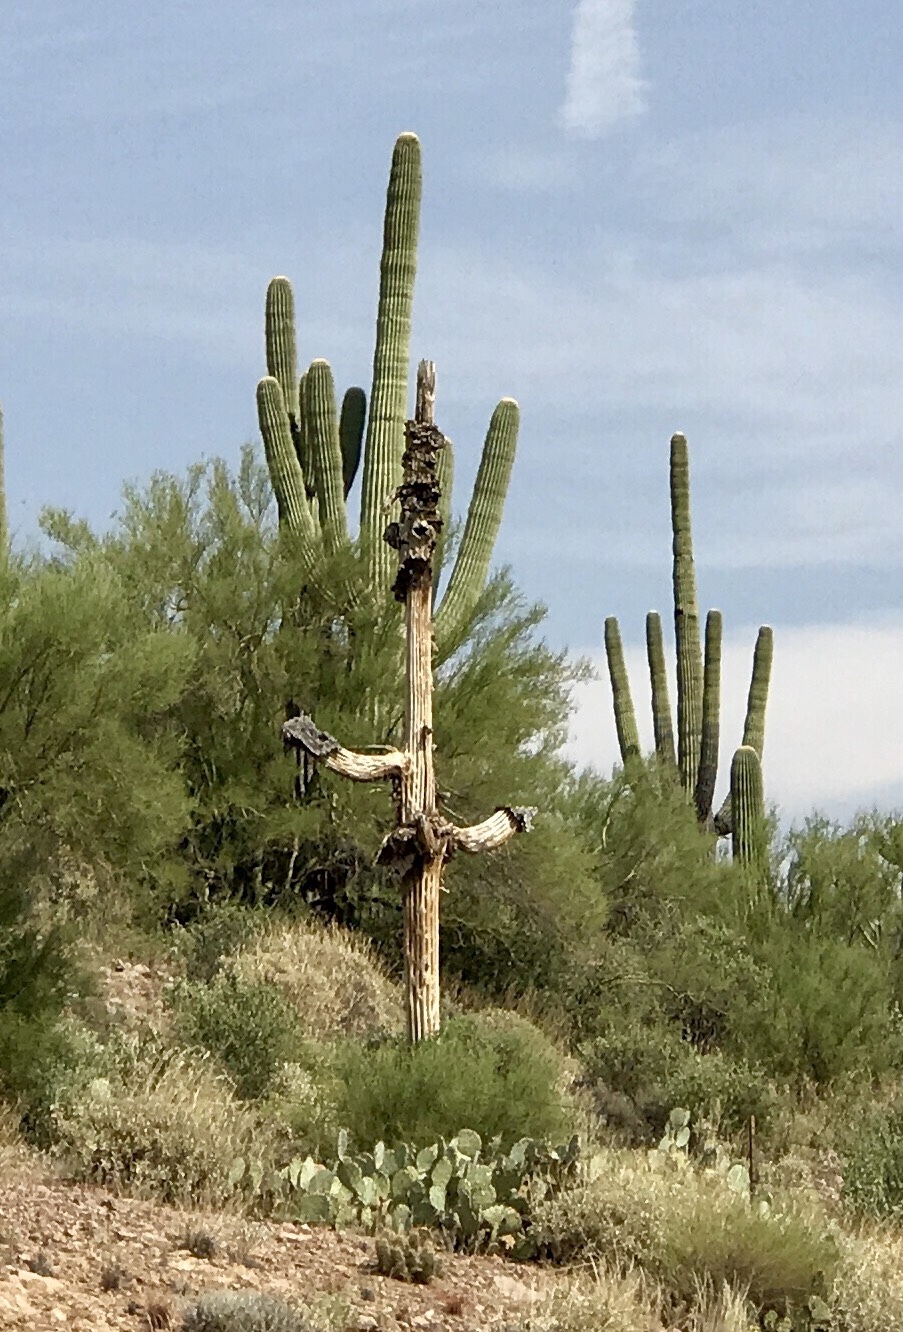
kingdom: Plantae
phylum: Tracheophyta
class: Magnoliopsida
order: Caryophyllales
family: Cactaceae
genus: Carnegiea
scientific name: Carnegiea gigantea
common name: Saguaro
